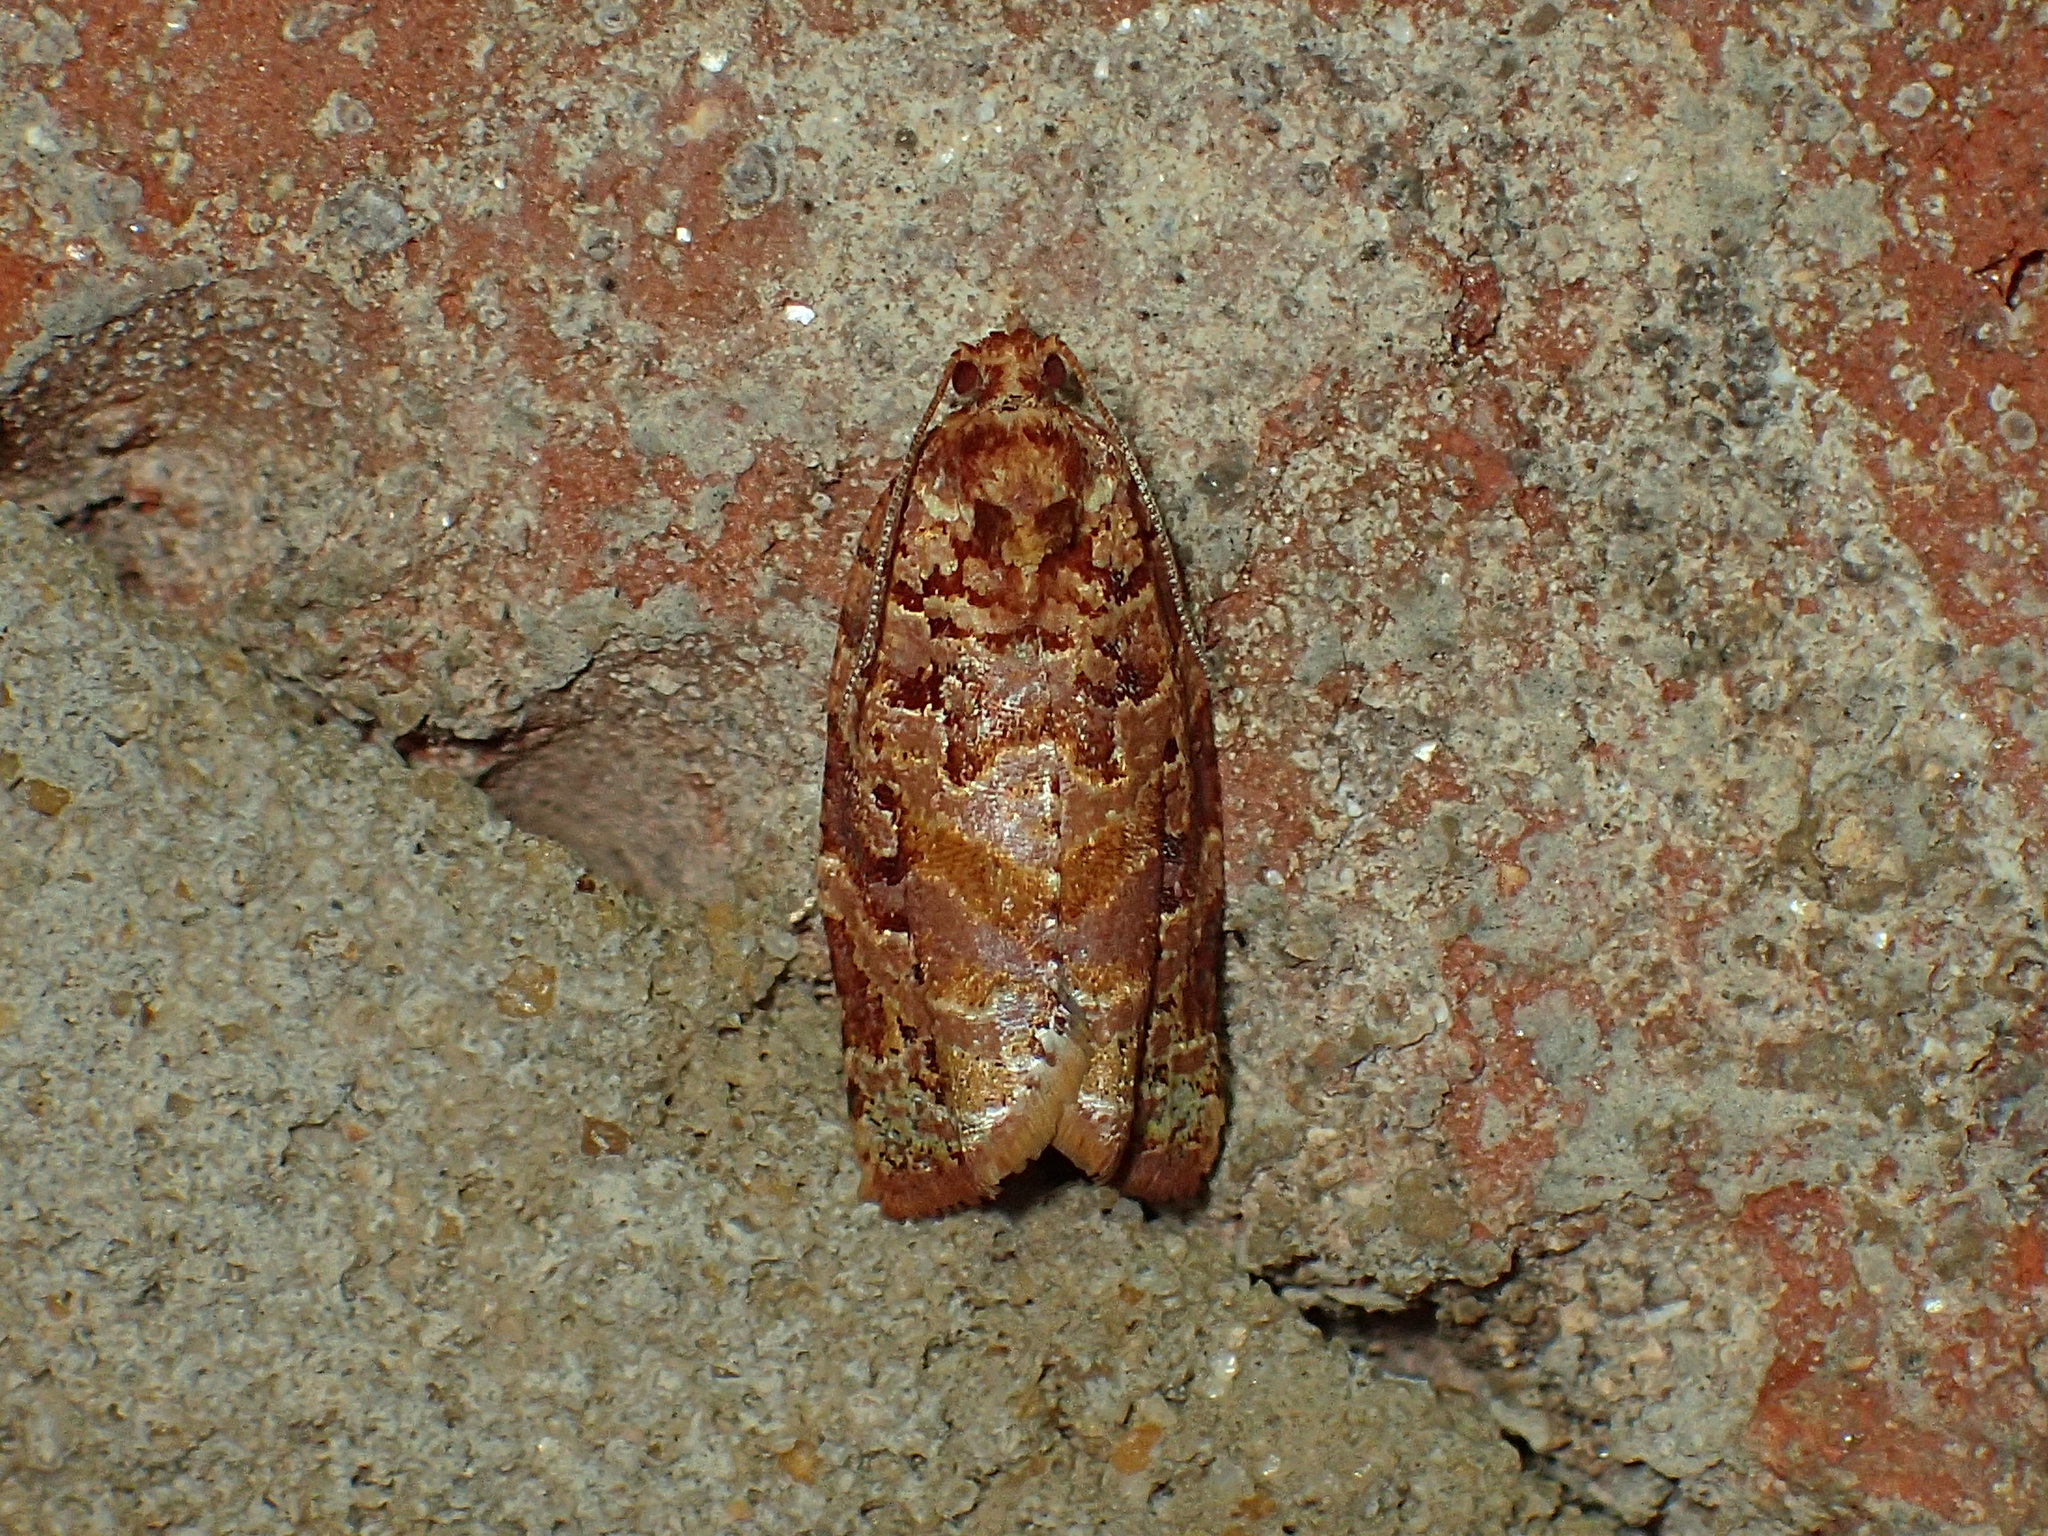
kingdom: Animalia
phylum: Arthropoda
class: Insecta
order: Lepidoptera
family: Tortricidae
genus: Argyrotaenia
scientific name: Argyrotaenia floridana
